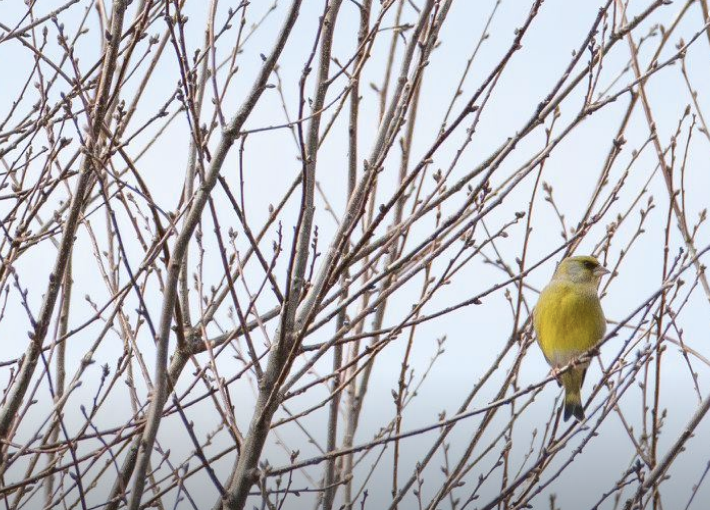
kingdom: Plantae
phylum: Tracheophyta
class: Liliopsida
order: Poales
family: Poaceae
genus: Chloris
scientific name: Chloris chloris
